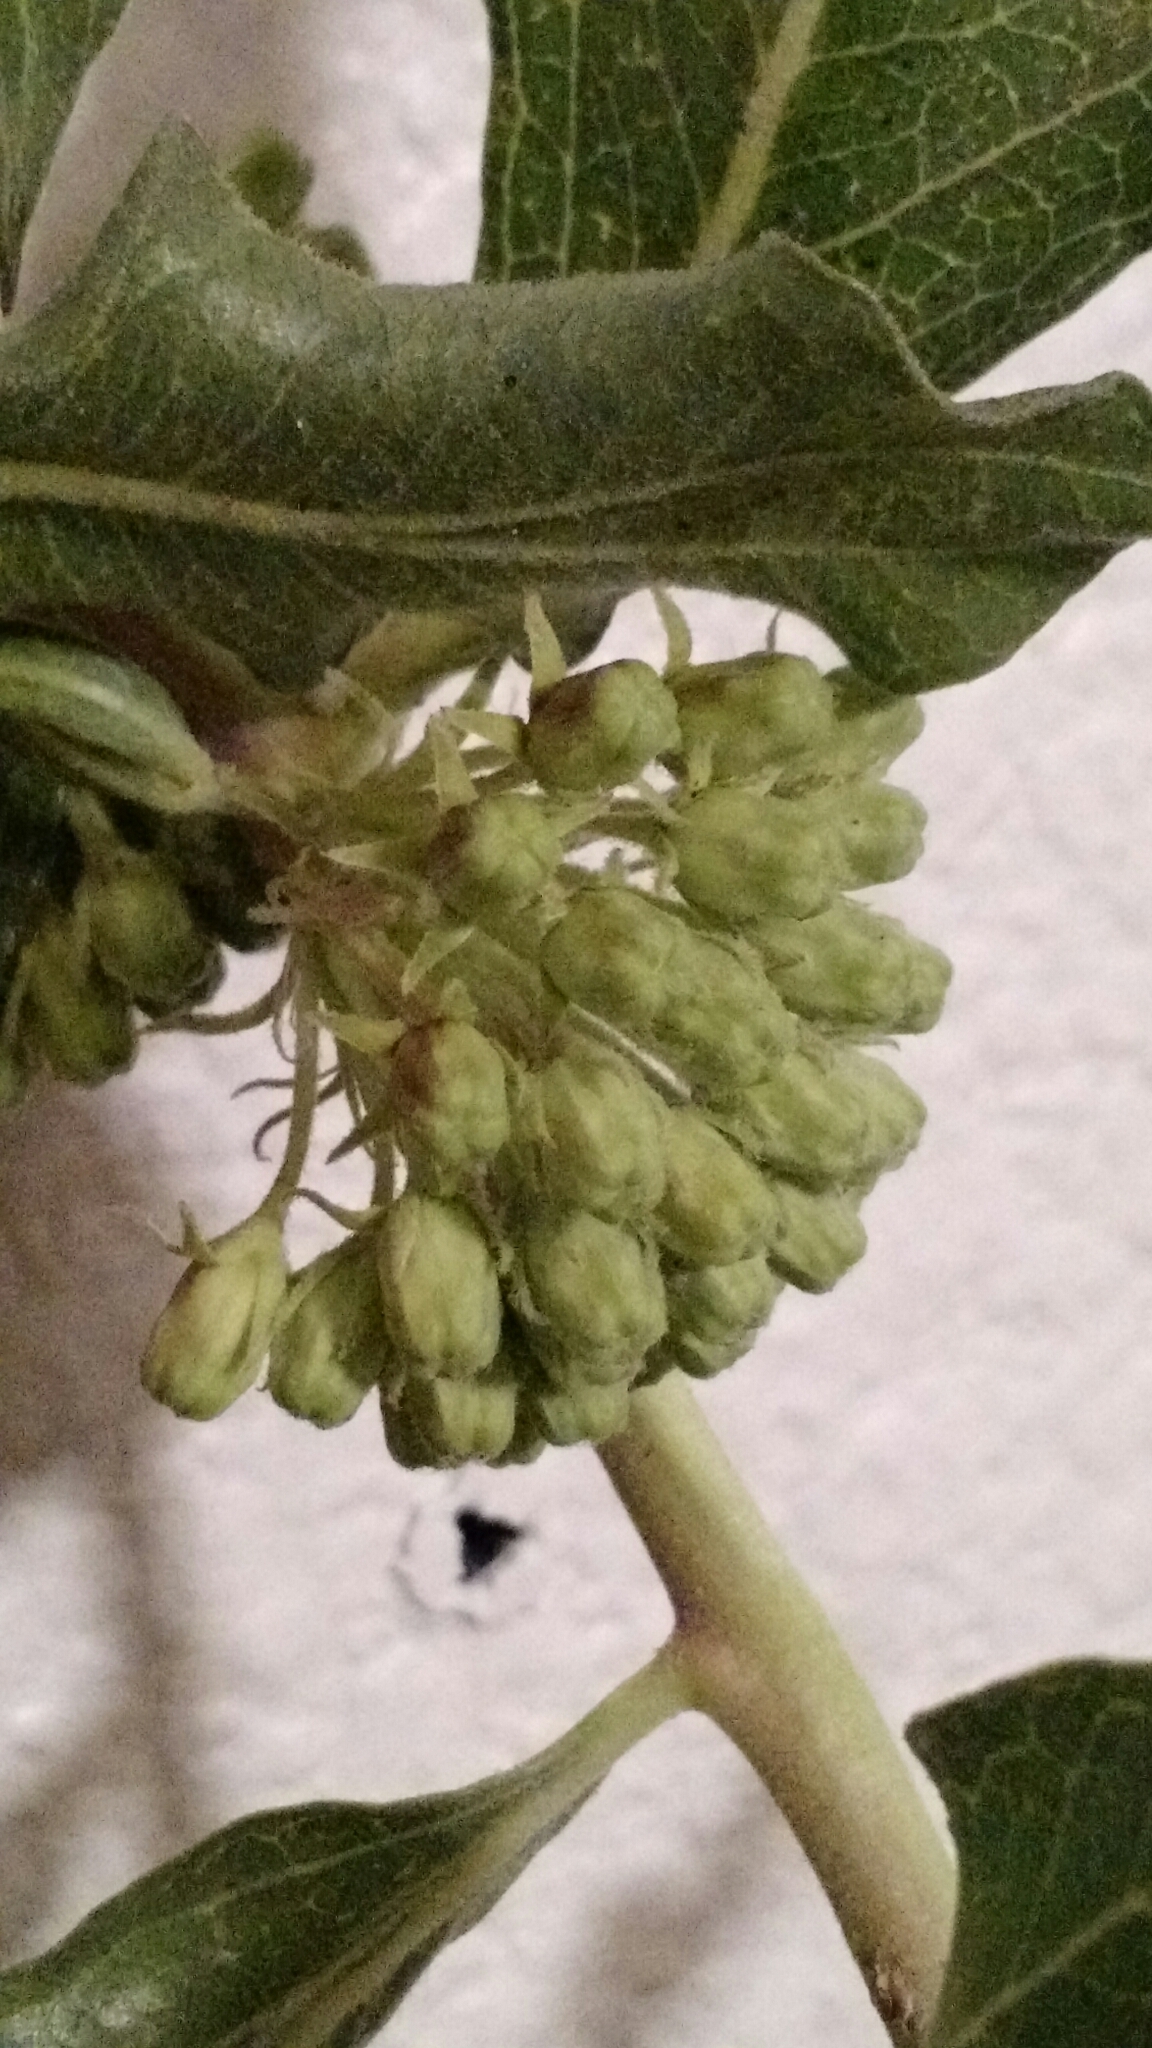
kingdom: Plantae
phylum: Tracheophyta
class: Magnoliopsida
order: Gentianales
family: Apocynaceae
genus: Asclepias
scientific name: Asclepias viridiflora
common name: Green comet milkweed
